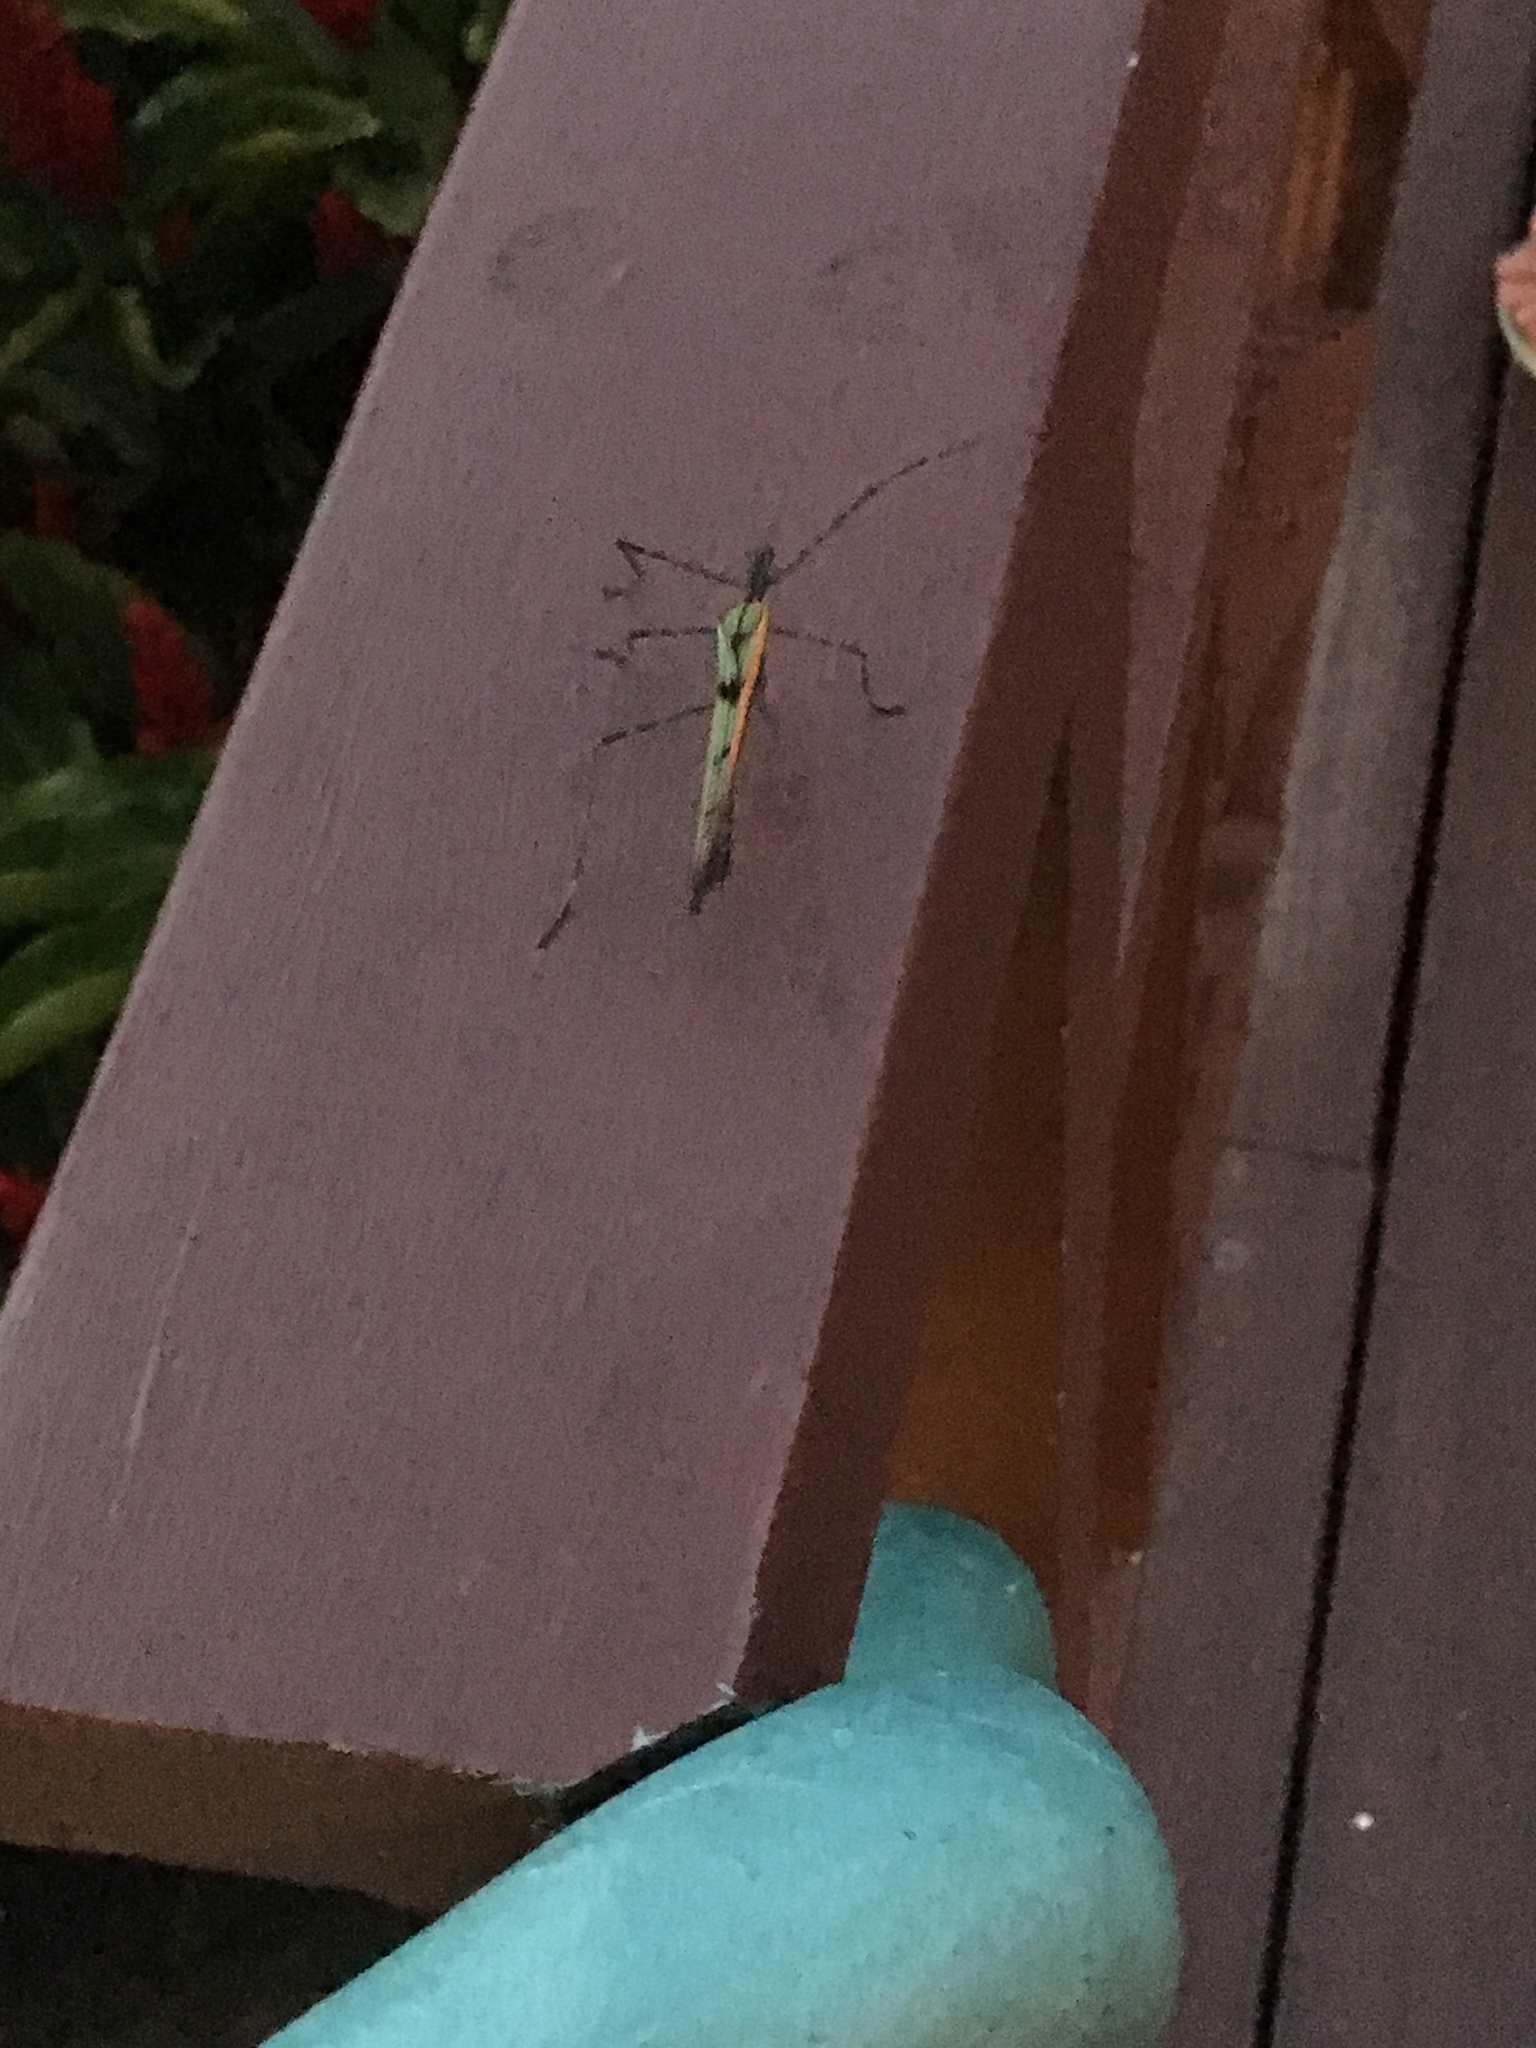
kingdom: Animalia
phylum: Arthropoda
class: Insecta
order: Phasmida
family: Pseudophasmatidae
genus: Stratocles
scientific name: Stratocles costaricensis
